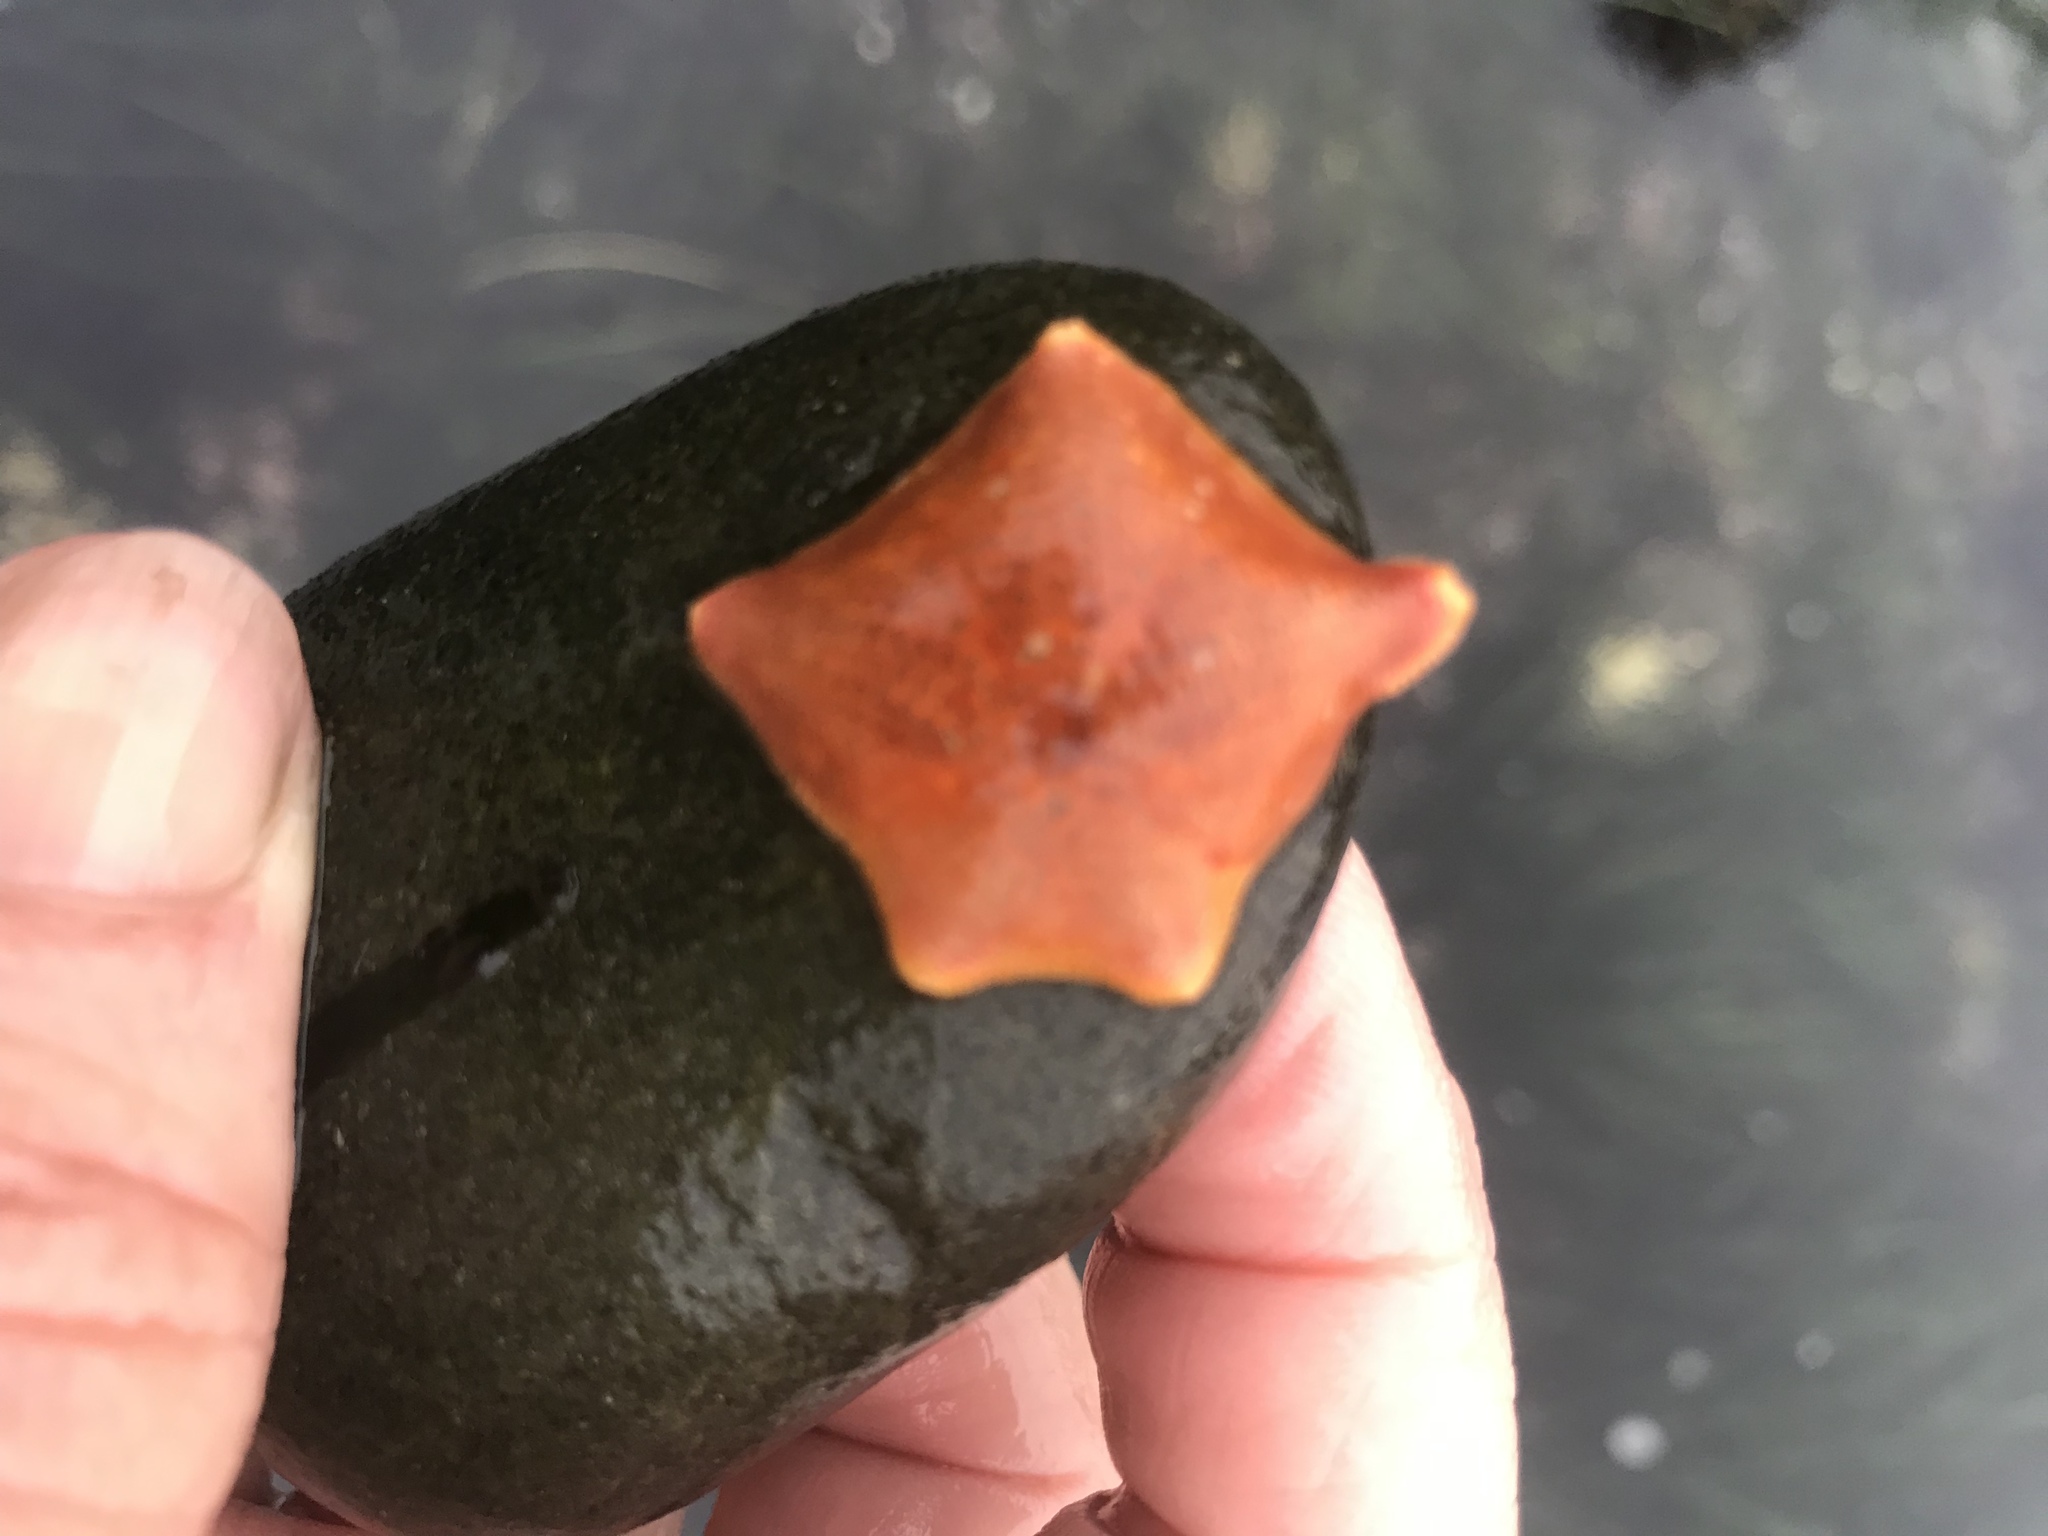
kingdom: Animalia
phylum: Echinodermata
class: Asteroidea
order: Valvatida
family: Asterinidae
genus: Patiria
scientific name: Patiria miniata
